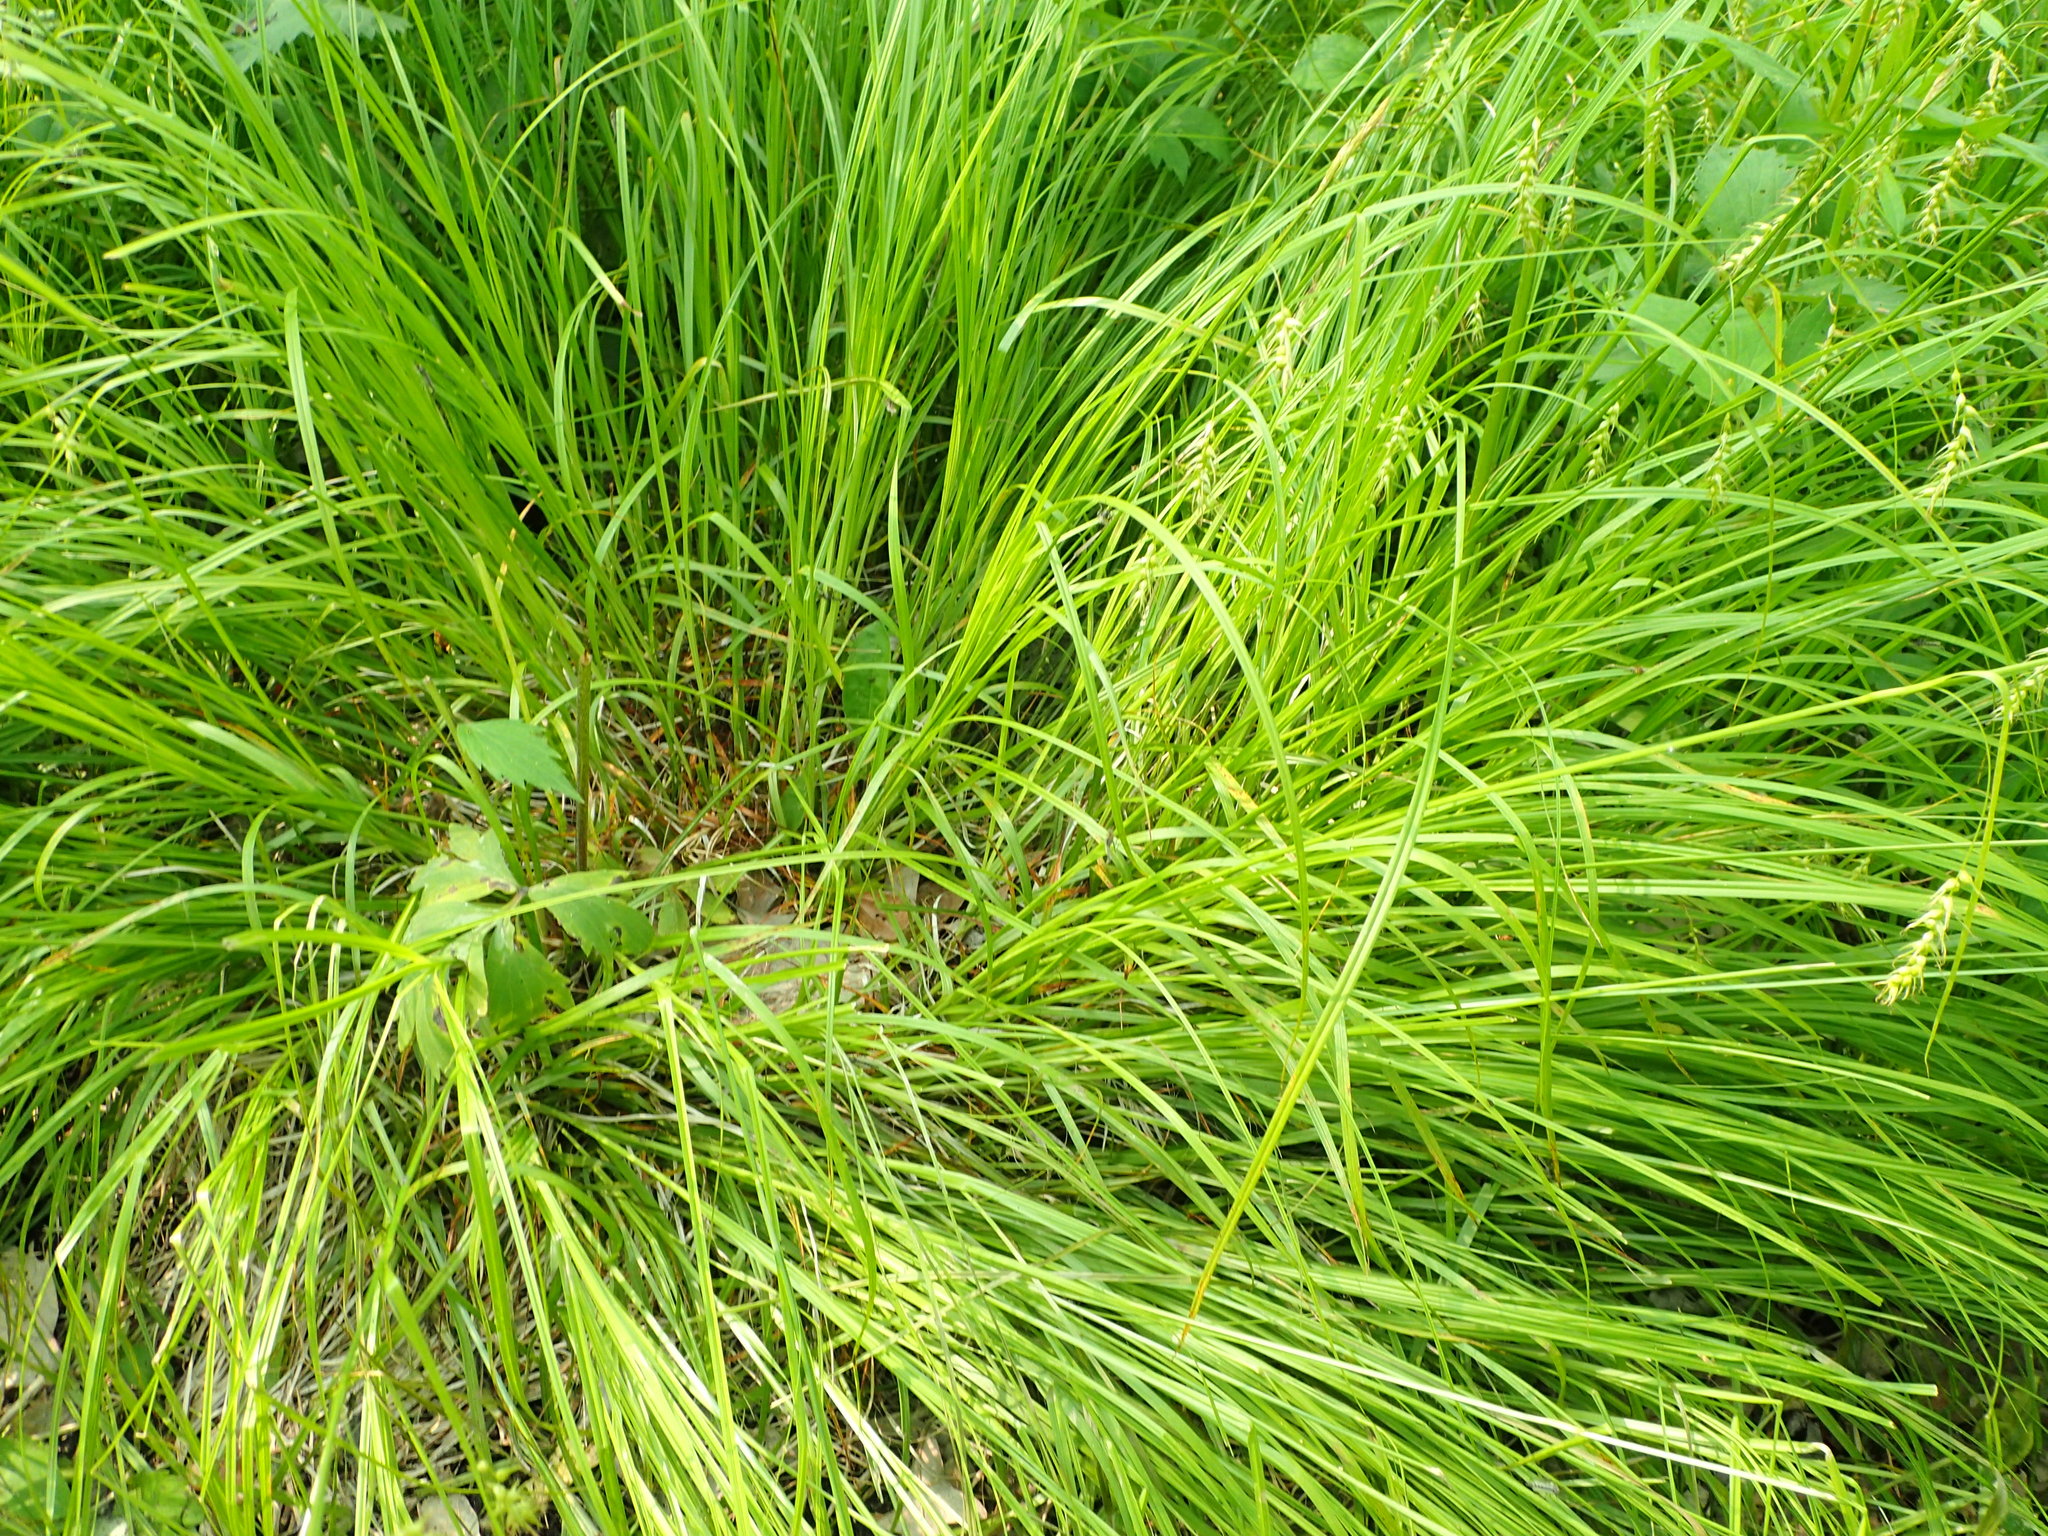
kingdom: Plantae
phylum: Tracheophyta
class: Liliopsida
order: Poales
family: Cyperaceae
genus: Carex
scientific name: Carex sprengelii
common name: Long-beaked sedge
